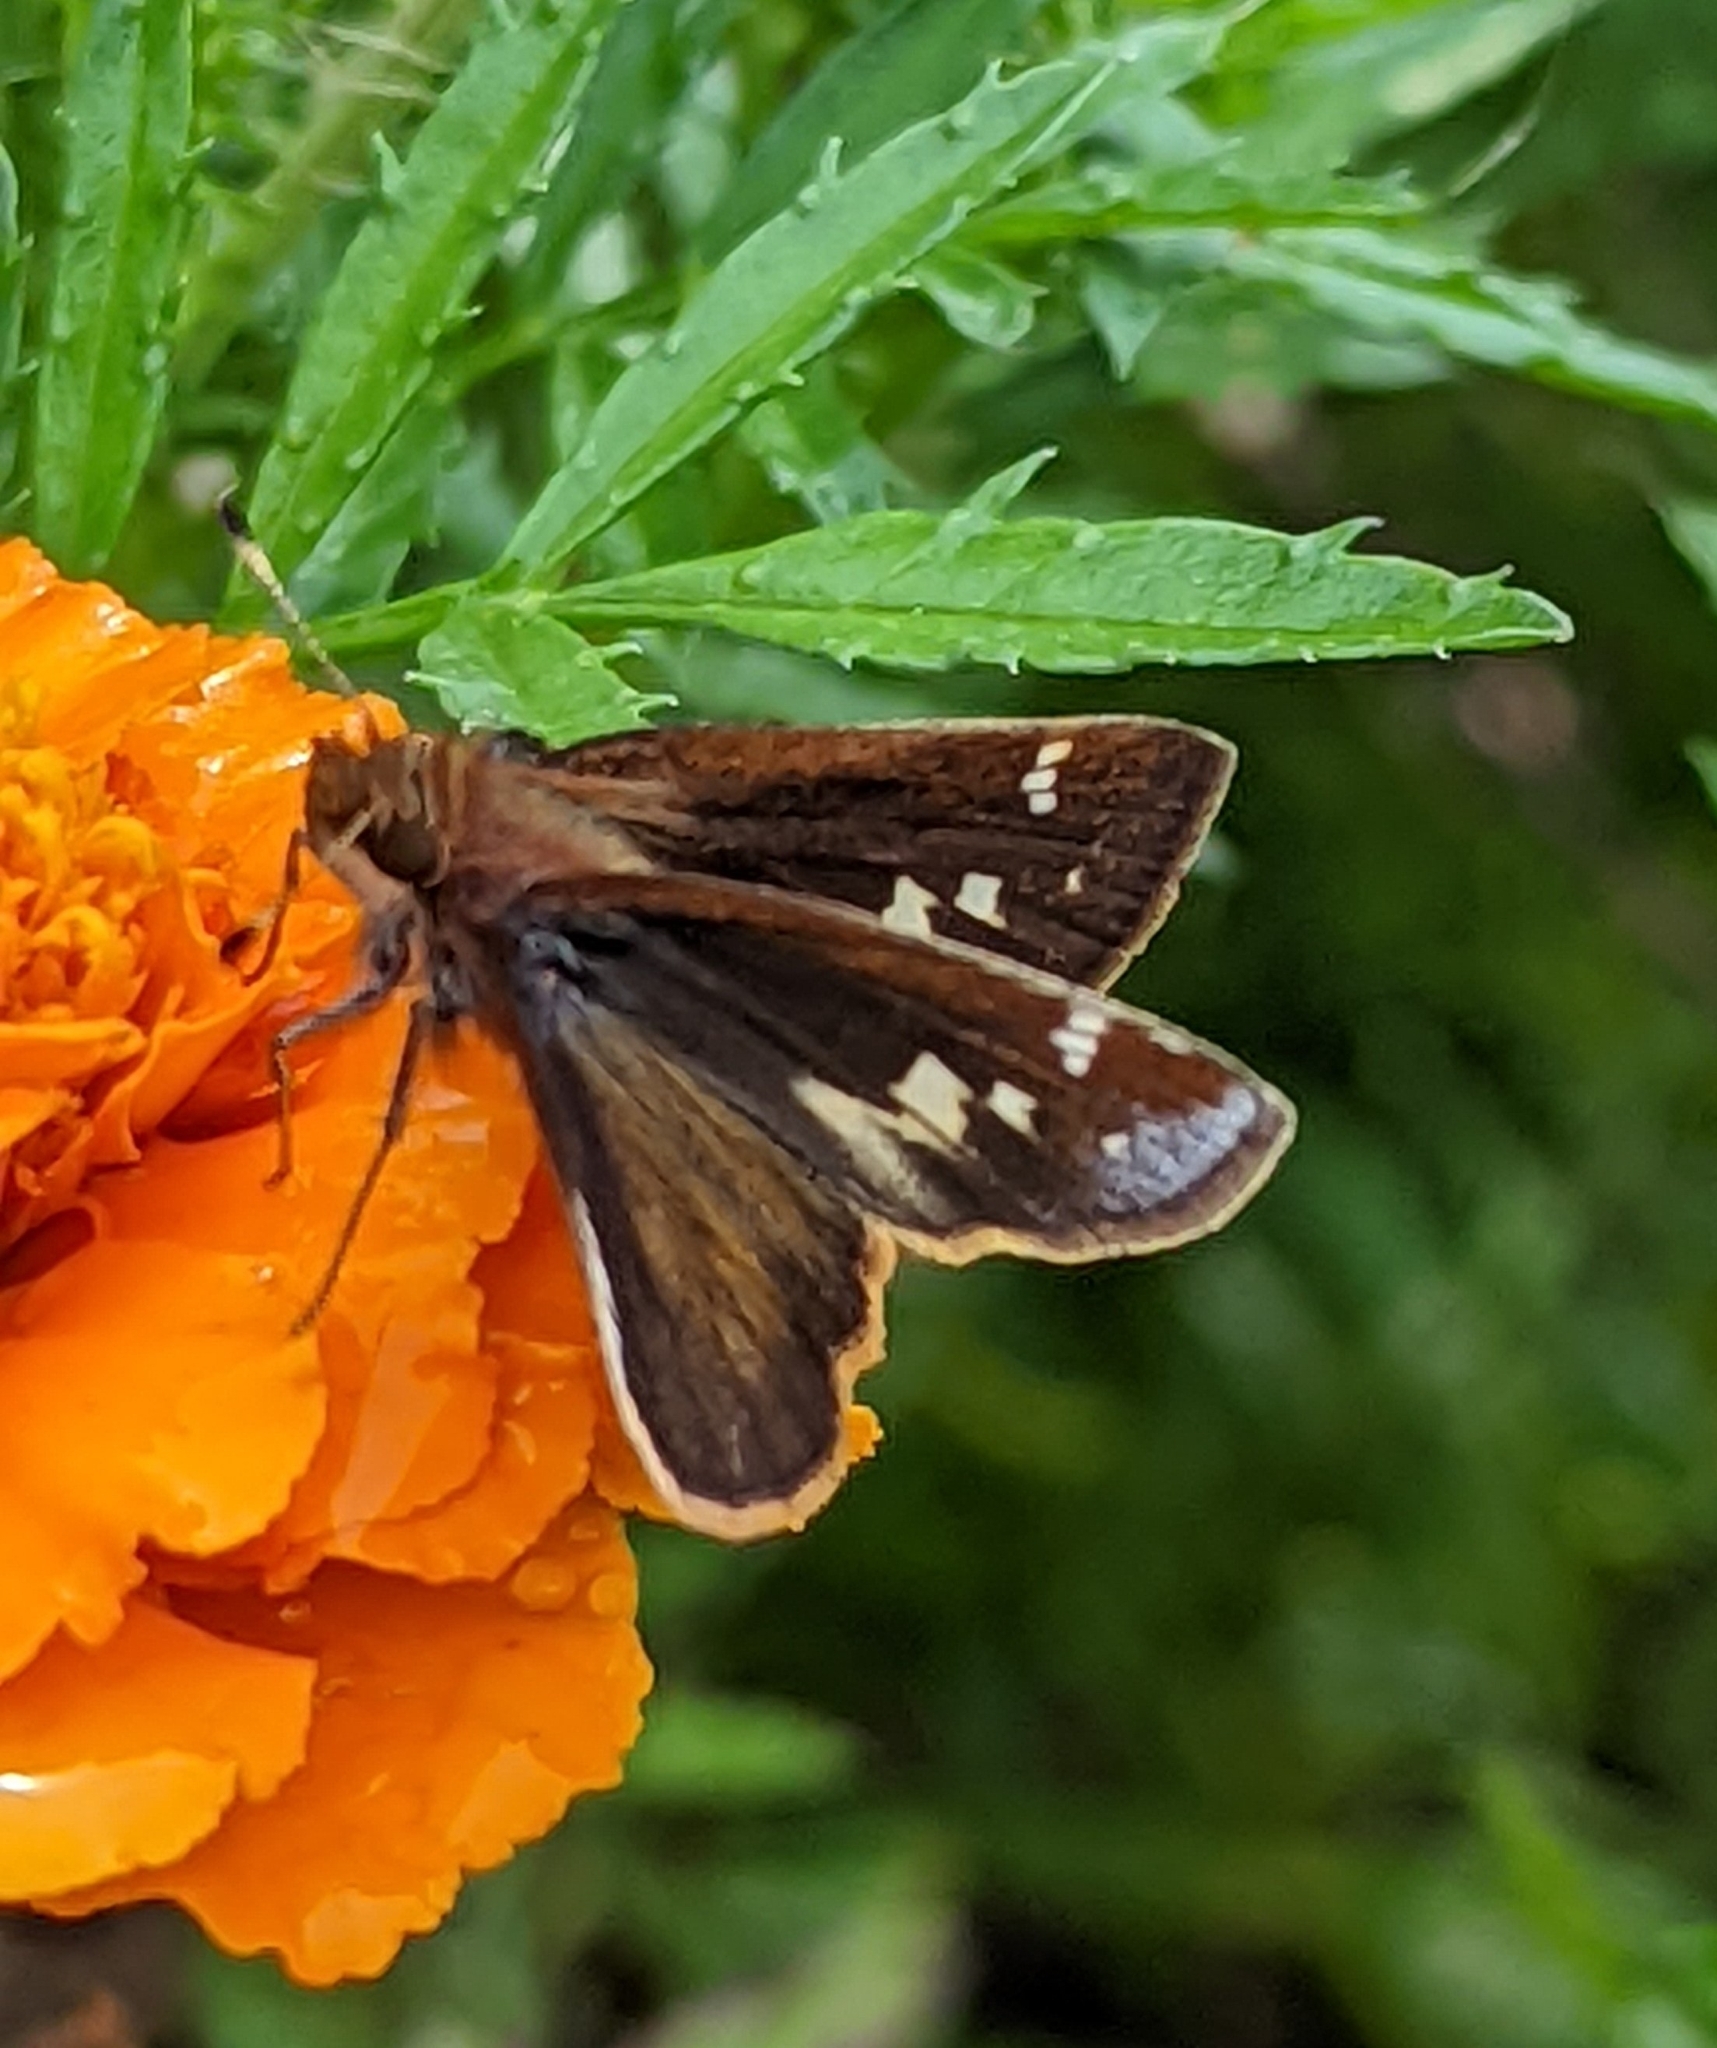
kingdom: Animalia
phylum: Arthropoda
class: Insecta
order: Lepidoptera
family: Hesperiidae
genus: Lon
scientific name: Lon zabulon
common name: Zabulon skipper
